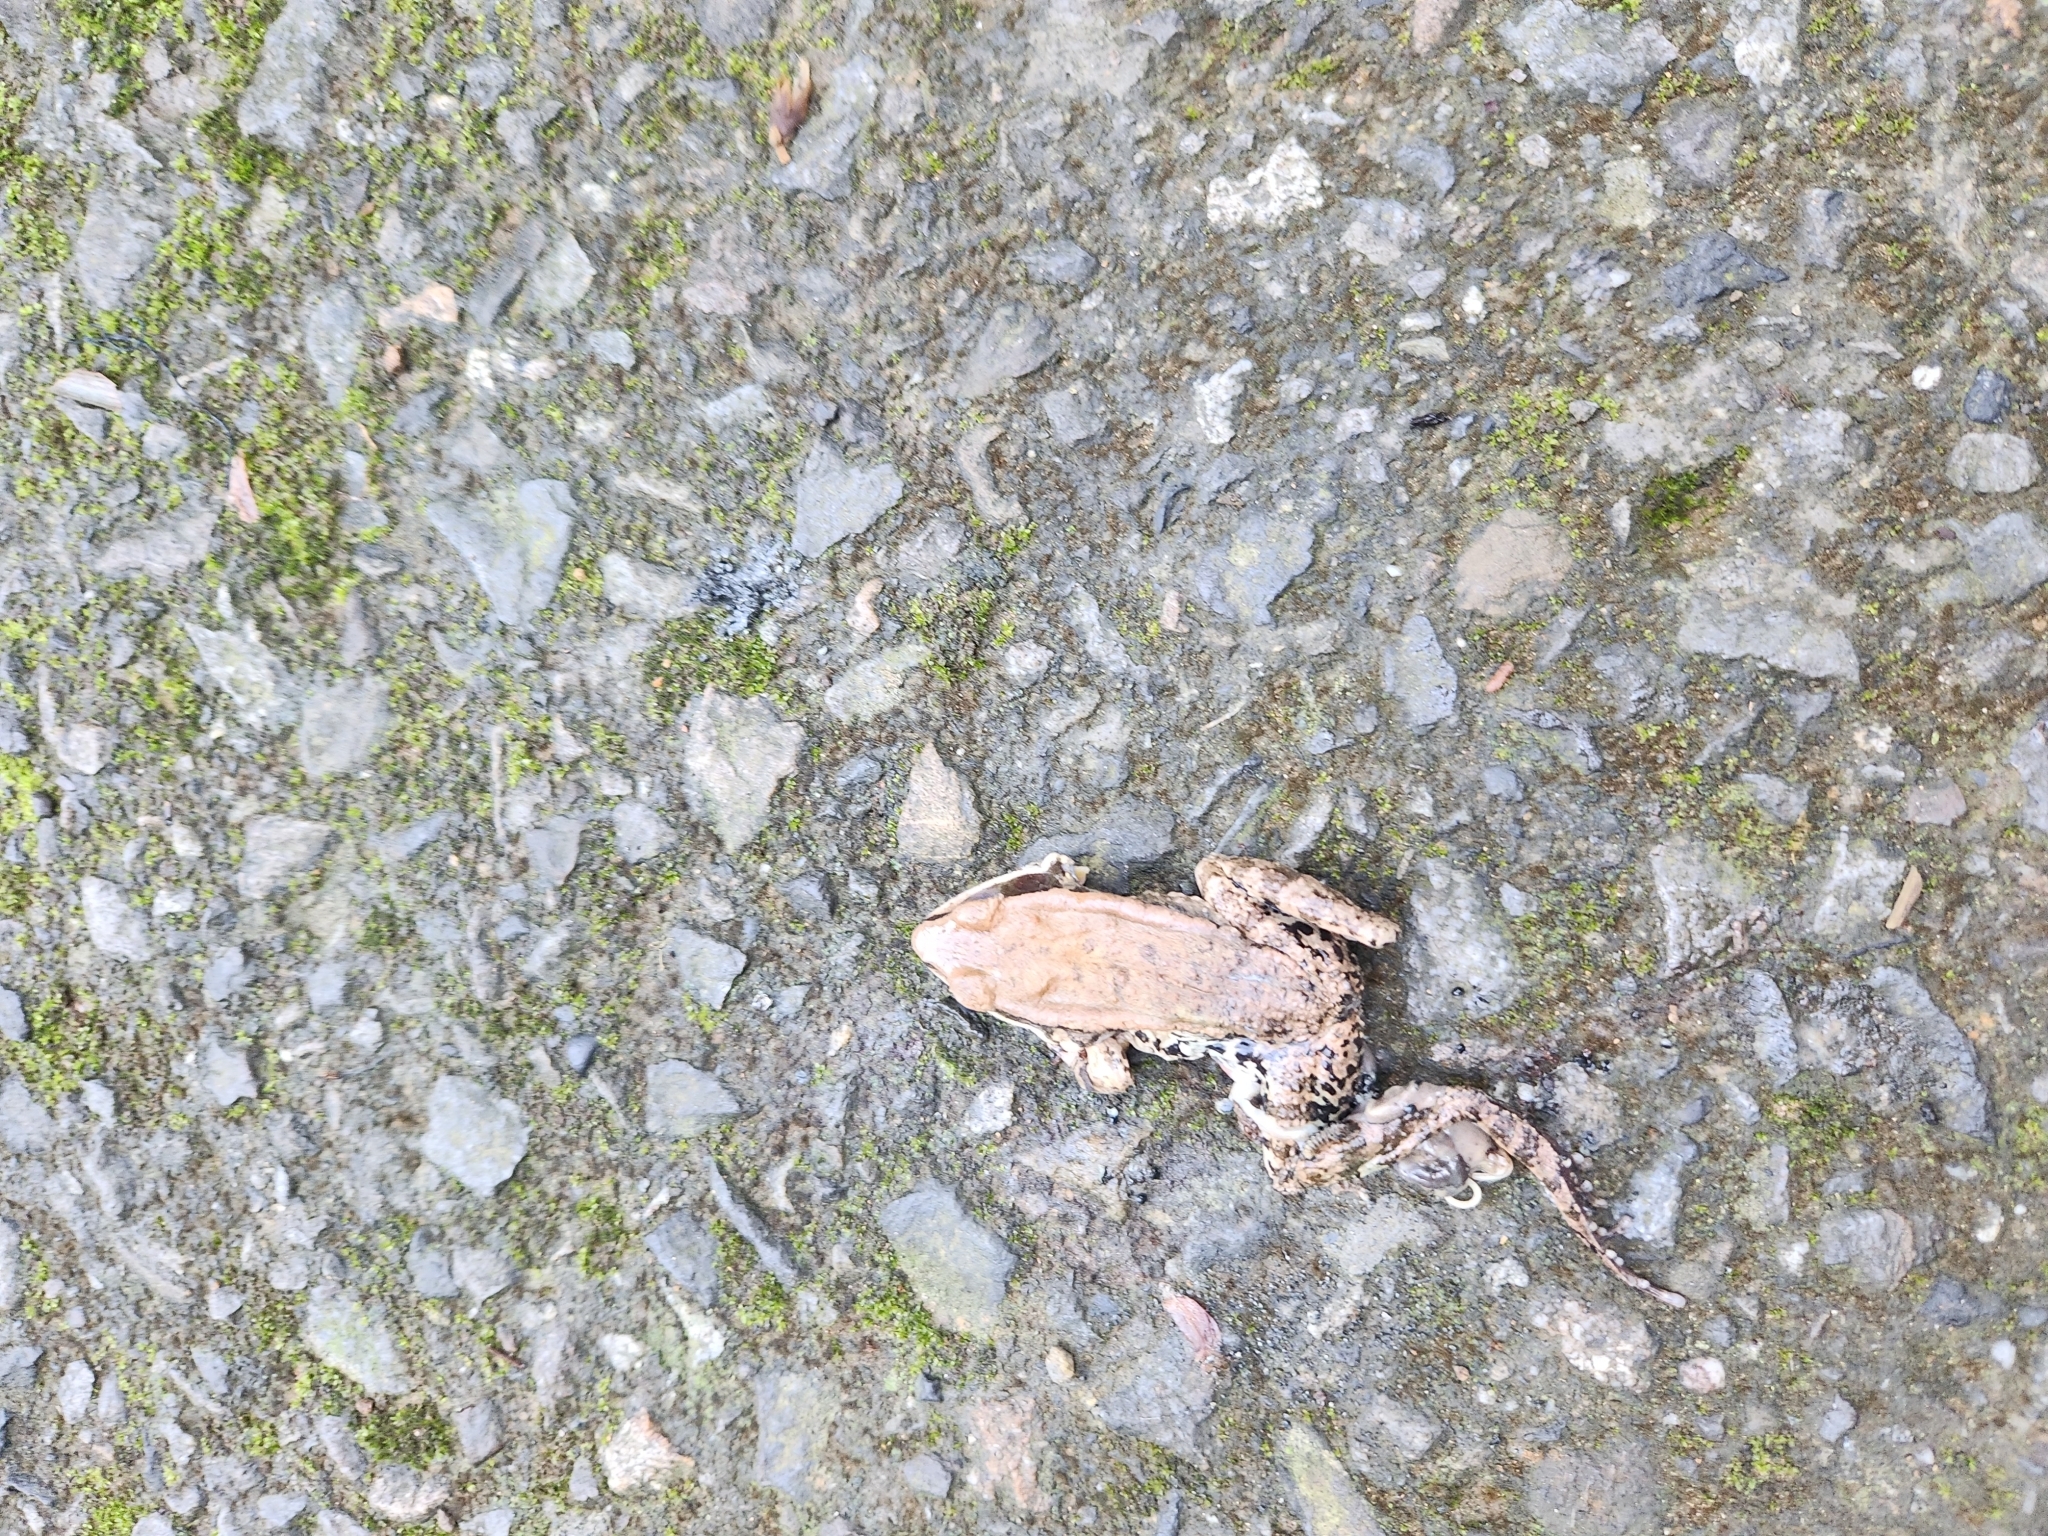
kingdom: Animalia
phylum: Chordata
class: Amphibia
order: Anura
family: Ranidae
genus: Hylarana
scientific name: Hylarana latouchii
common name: Broad-folded frog
